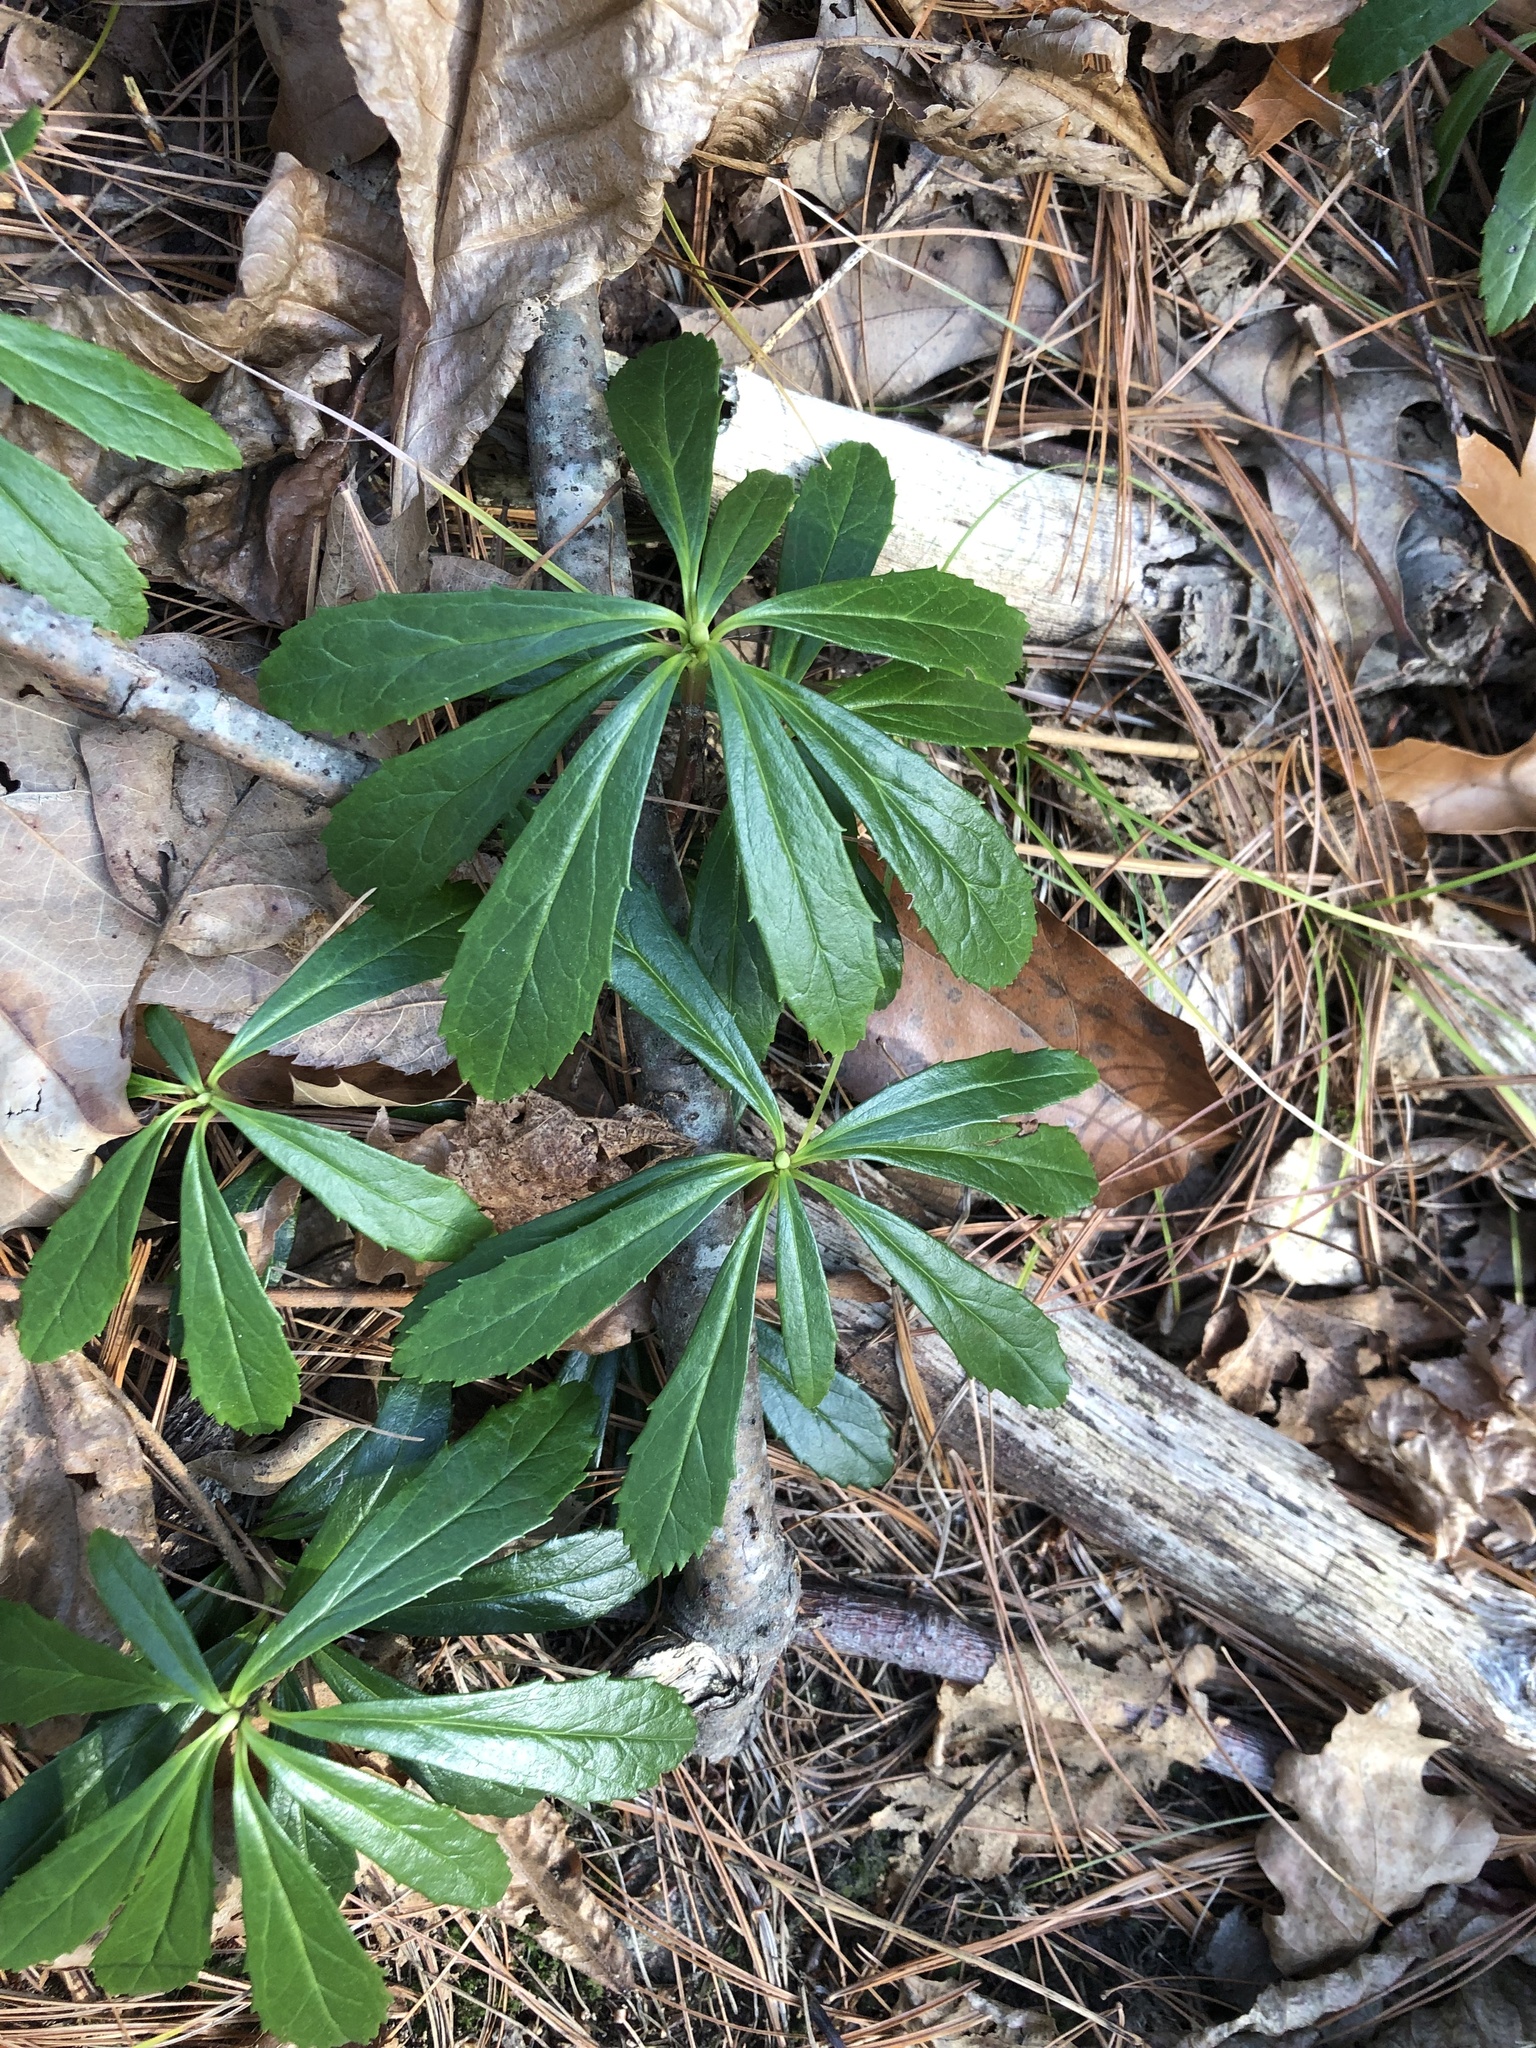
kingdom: Plantae
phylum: Tracheophyta
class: Magnoliopsida
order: Ericales
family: Ericaceae
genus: Chimaphila
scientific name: Chimaphila umbellata
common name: Pipsissewa
